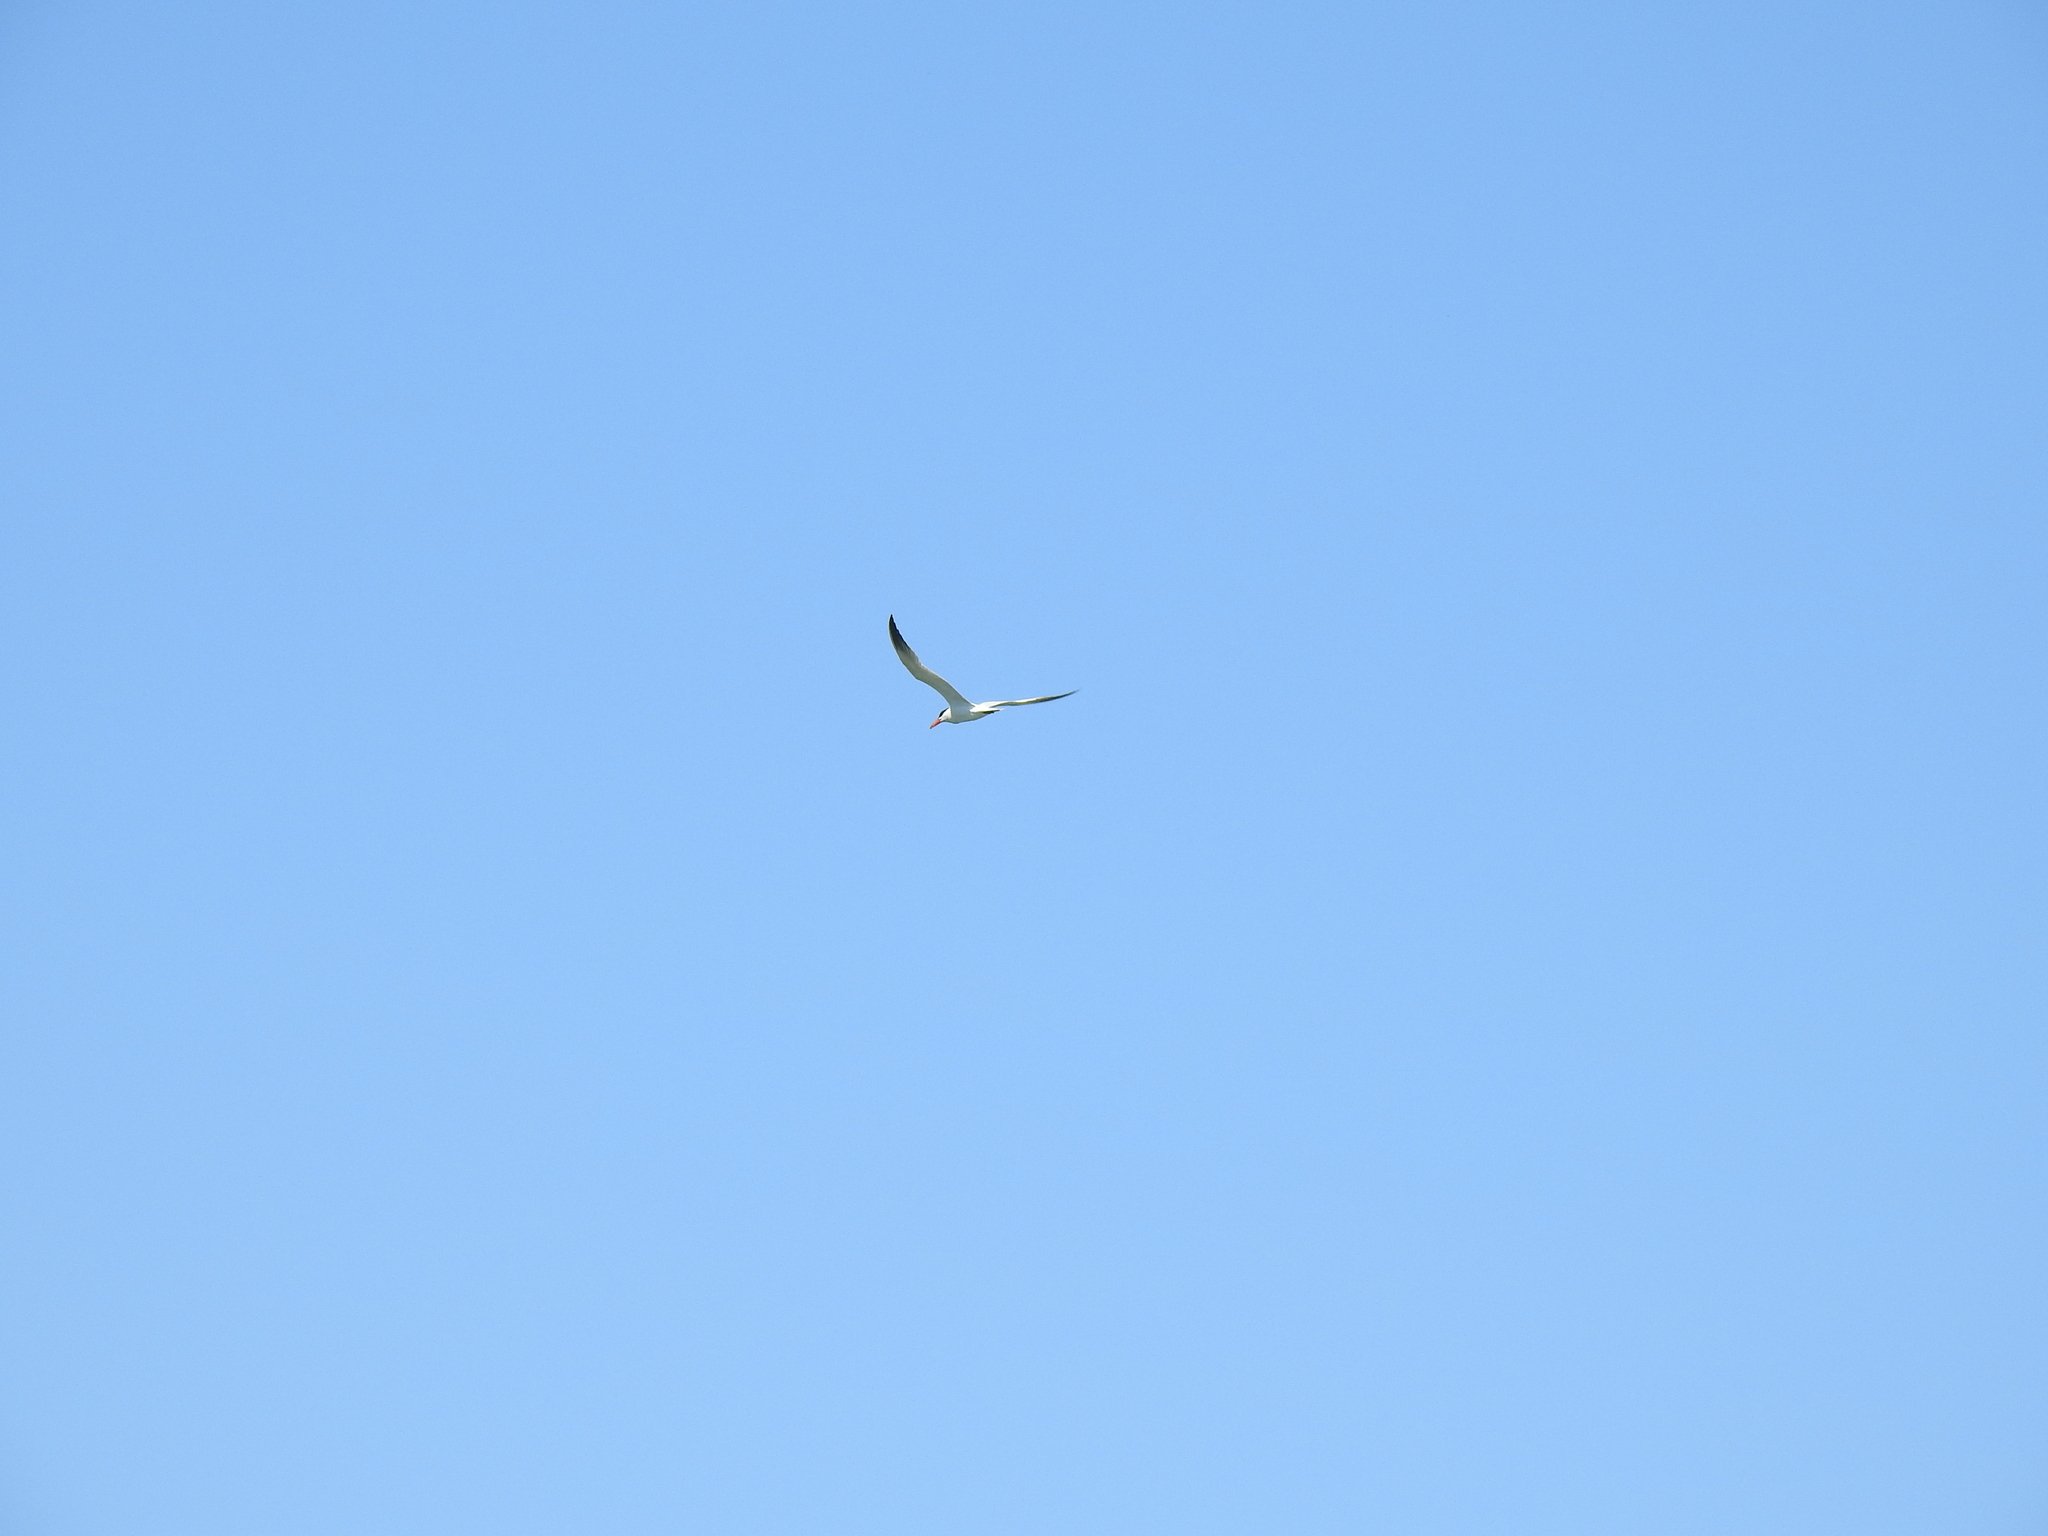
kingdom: Animalia
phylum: Chordata
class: Aves
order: Charadriiformes
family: Laridae
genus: Hydroprogne
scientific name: Hydroprogne caspia
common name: Caspian tern
